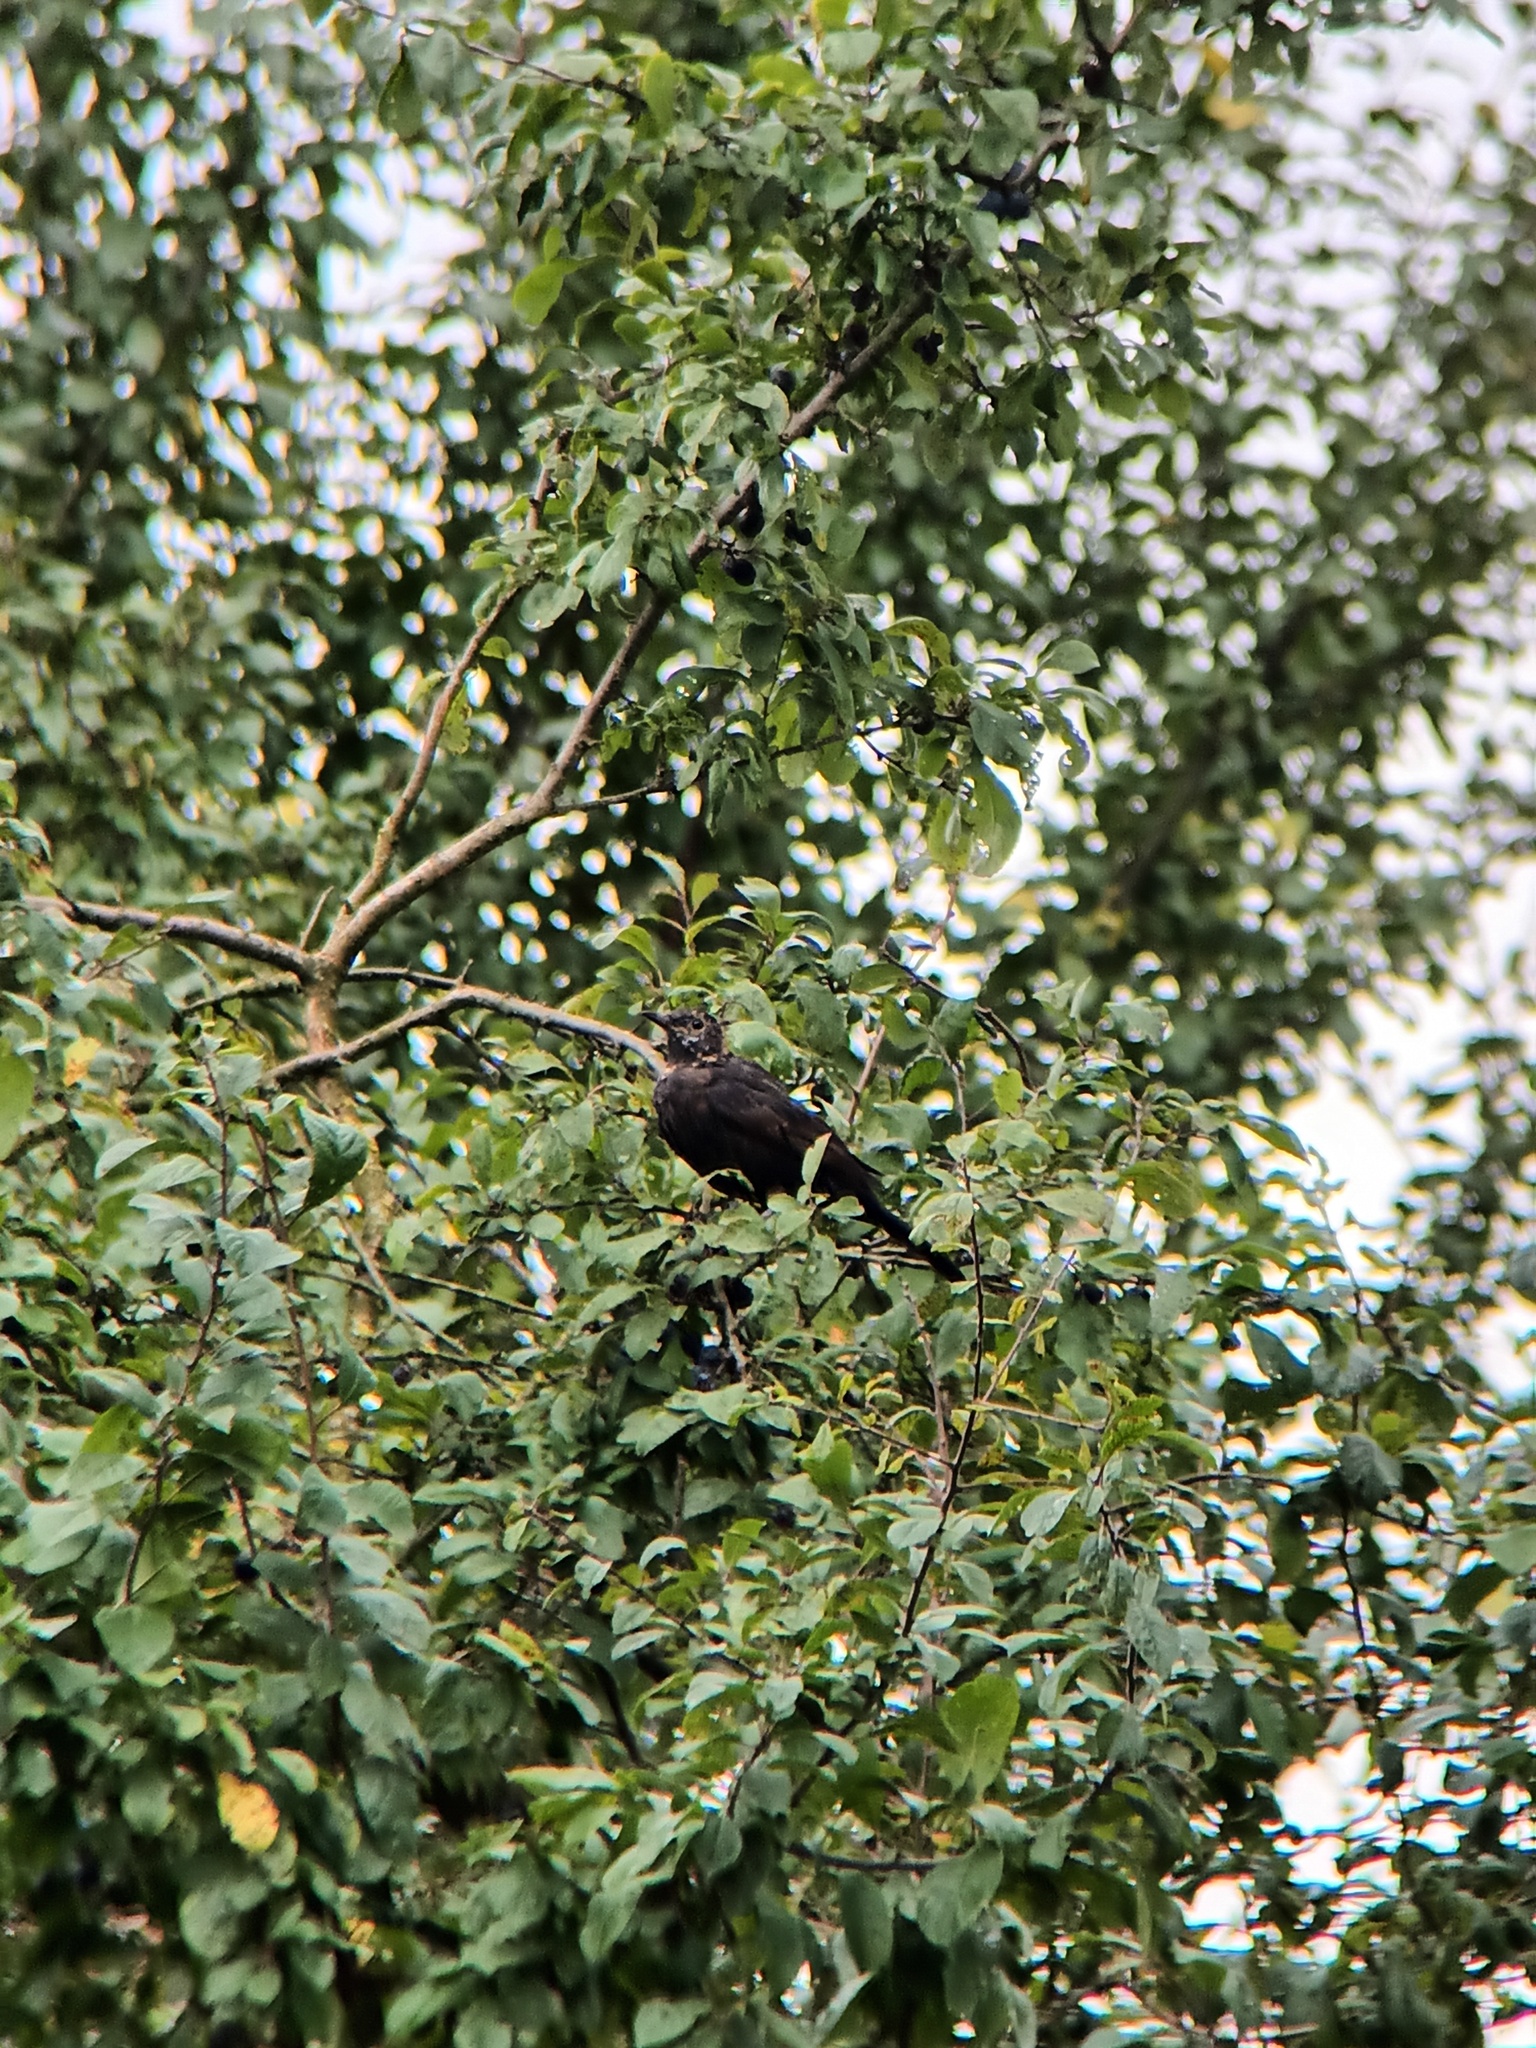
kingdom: Animalia
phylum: Chordata
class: Aves
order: Passeriformes
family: Turdidae
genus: Turdus
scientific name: Turdus merula
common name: Common blackbird
